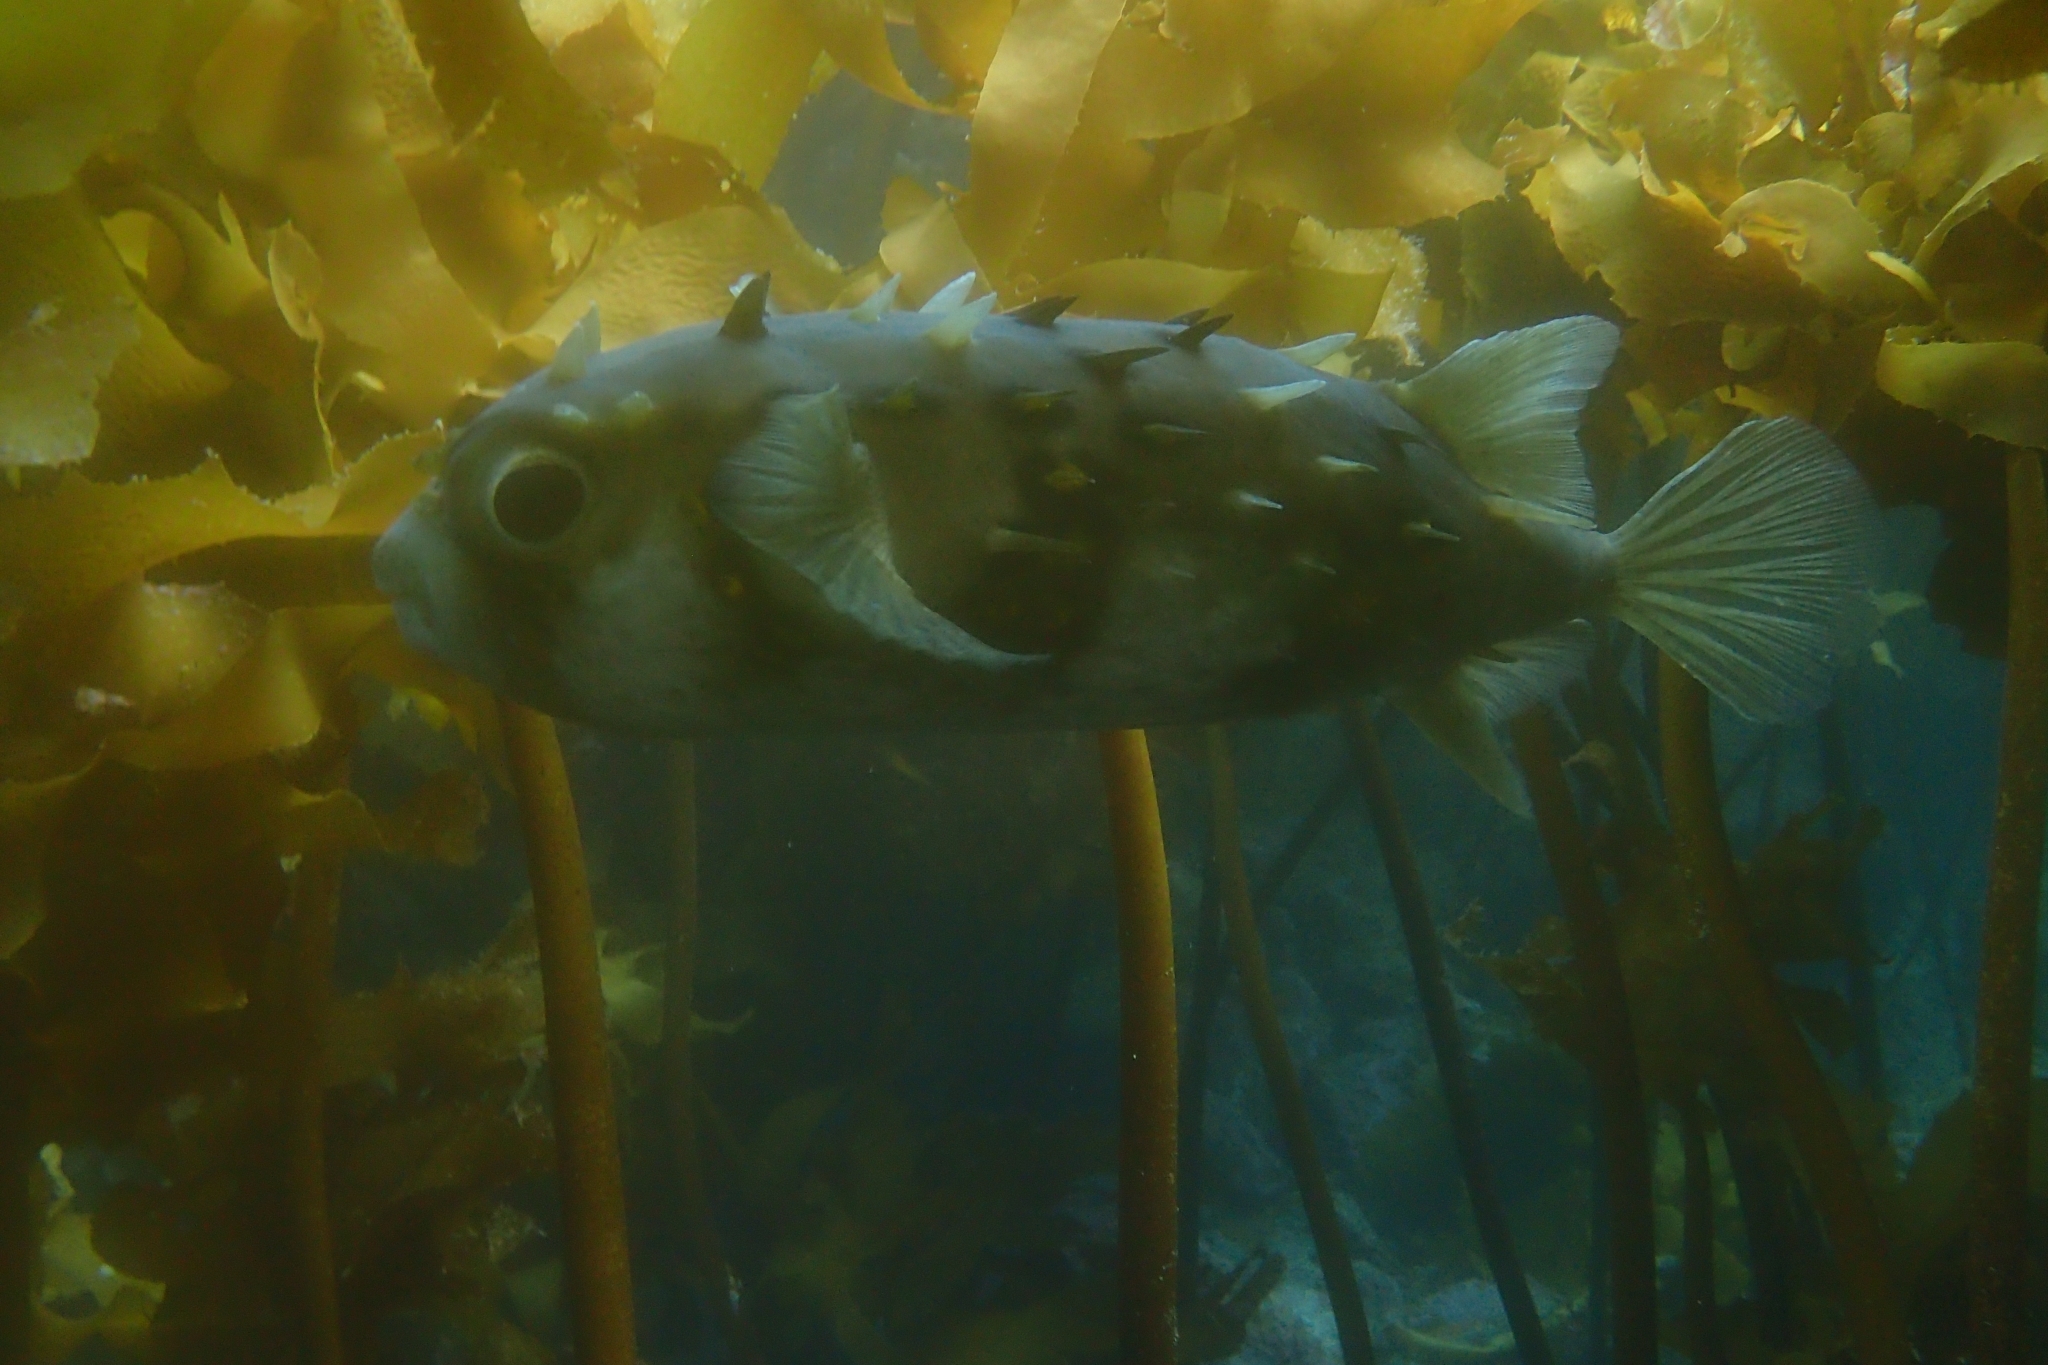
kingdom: Animalia
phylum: Chordata
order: Tetraodontiformes
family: Diodontidae
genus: Allomycterus
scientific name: Allomycterus pilatus
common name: No common name
